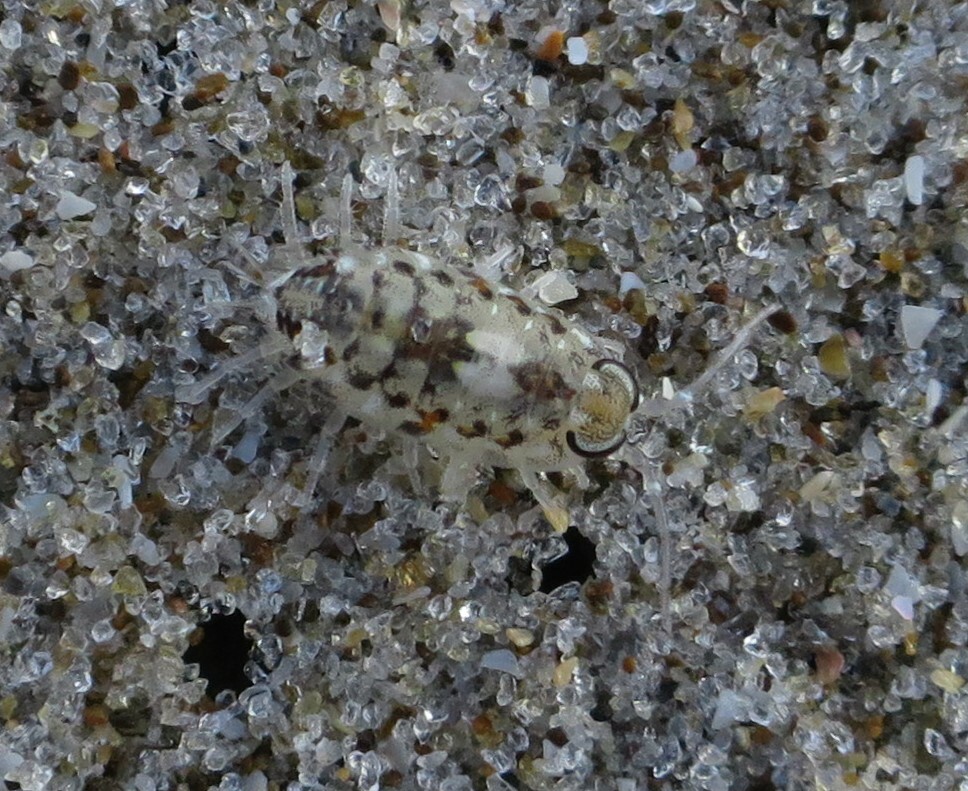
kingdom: Animalia
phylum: Arthropoda
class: Malacostraca
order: Isopoda
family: Scyphacidae
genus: Scyphax
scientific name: Scyphax ornatus
